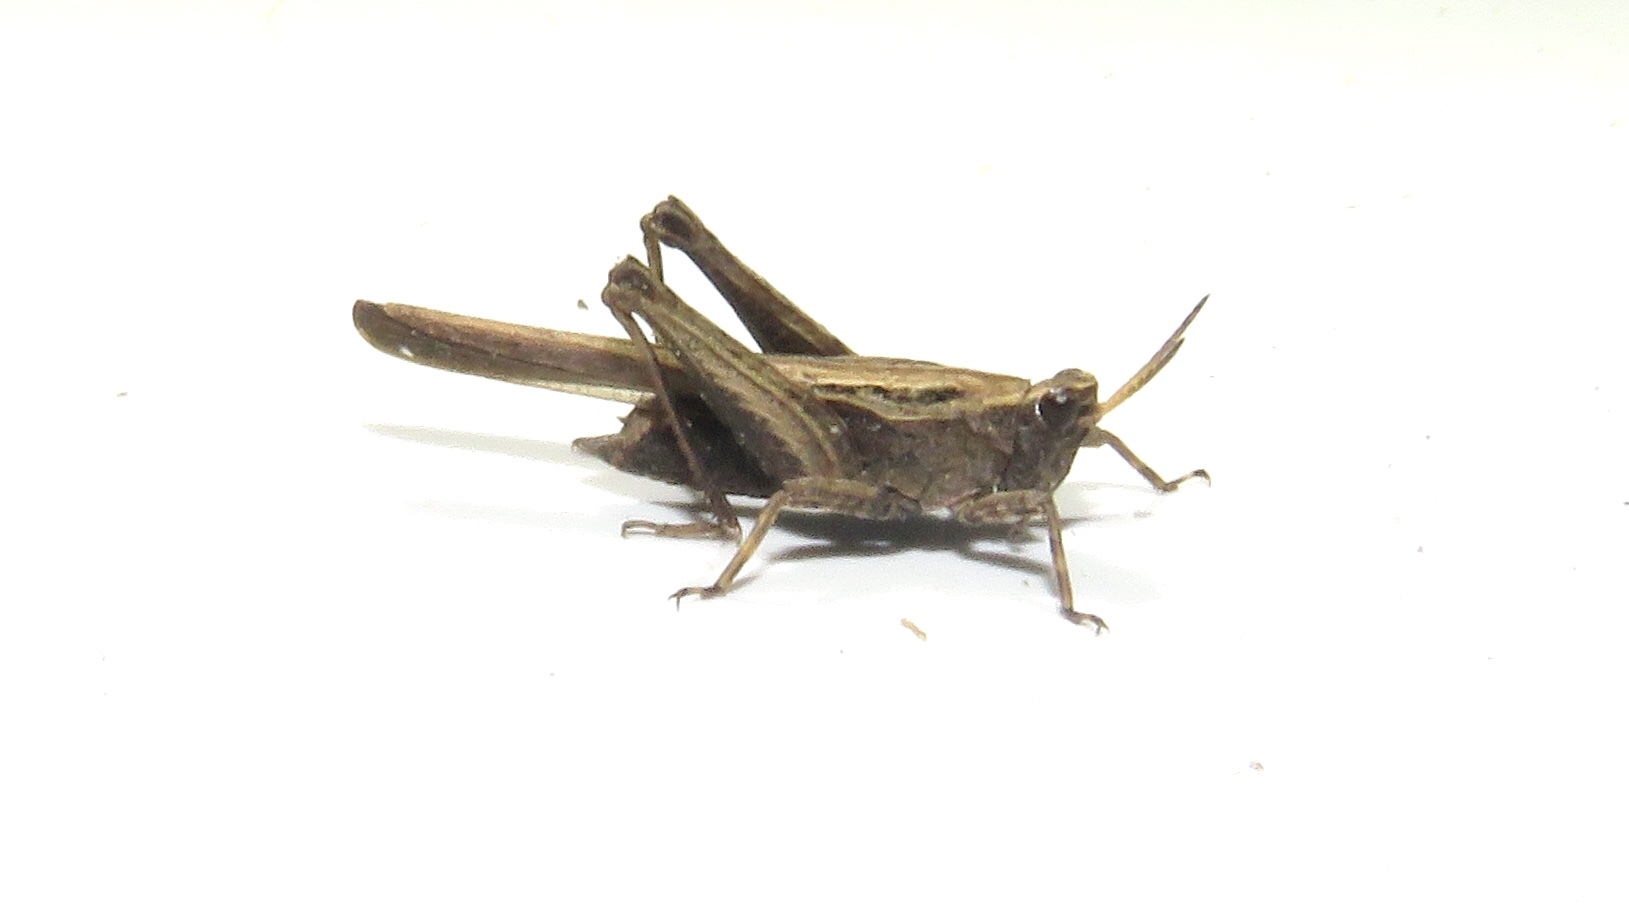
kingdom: Animalia
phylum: Arthropoda
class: Insecta
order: Orthoptera
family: Tetrigidae
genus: Tetrix
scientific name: Tetrix subulata
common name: Slender ground-hopper
